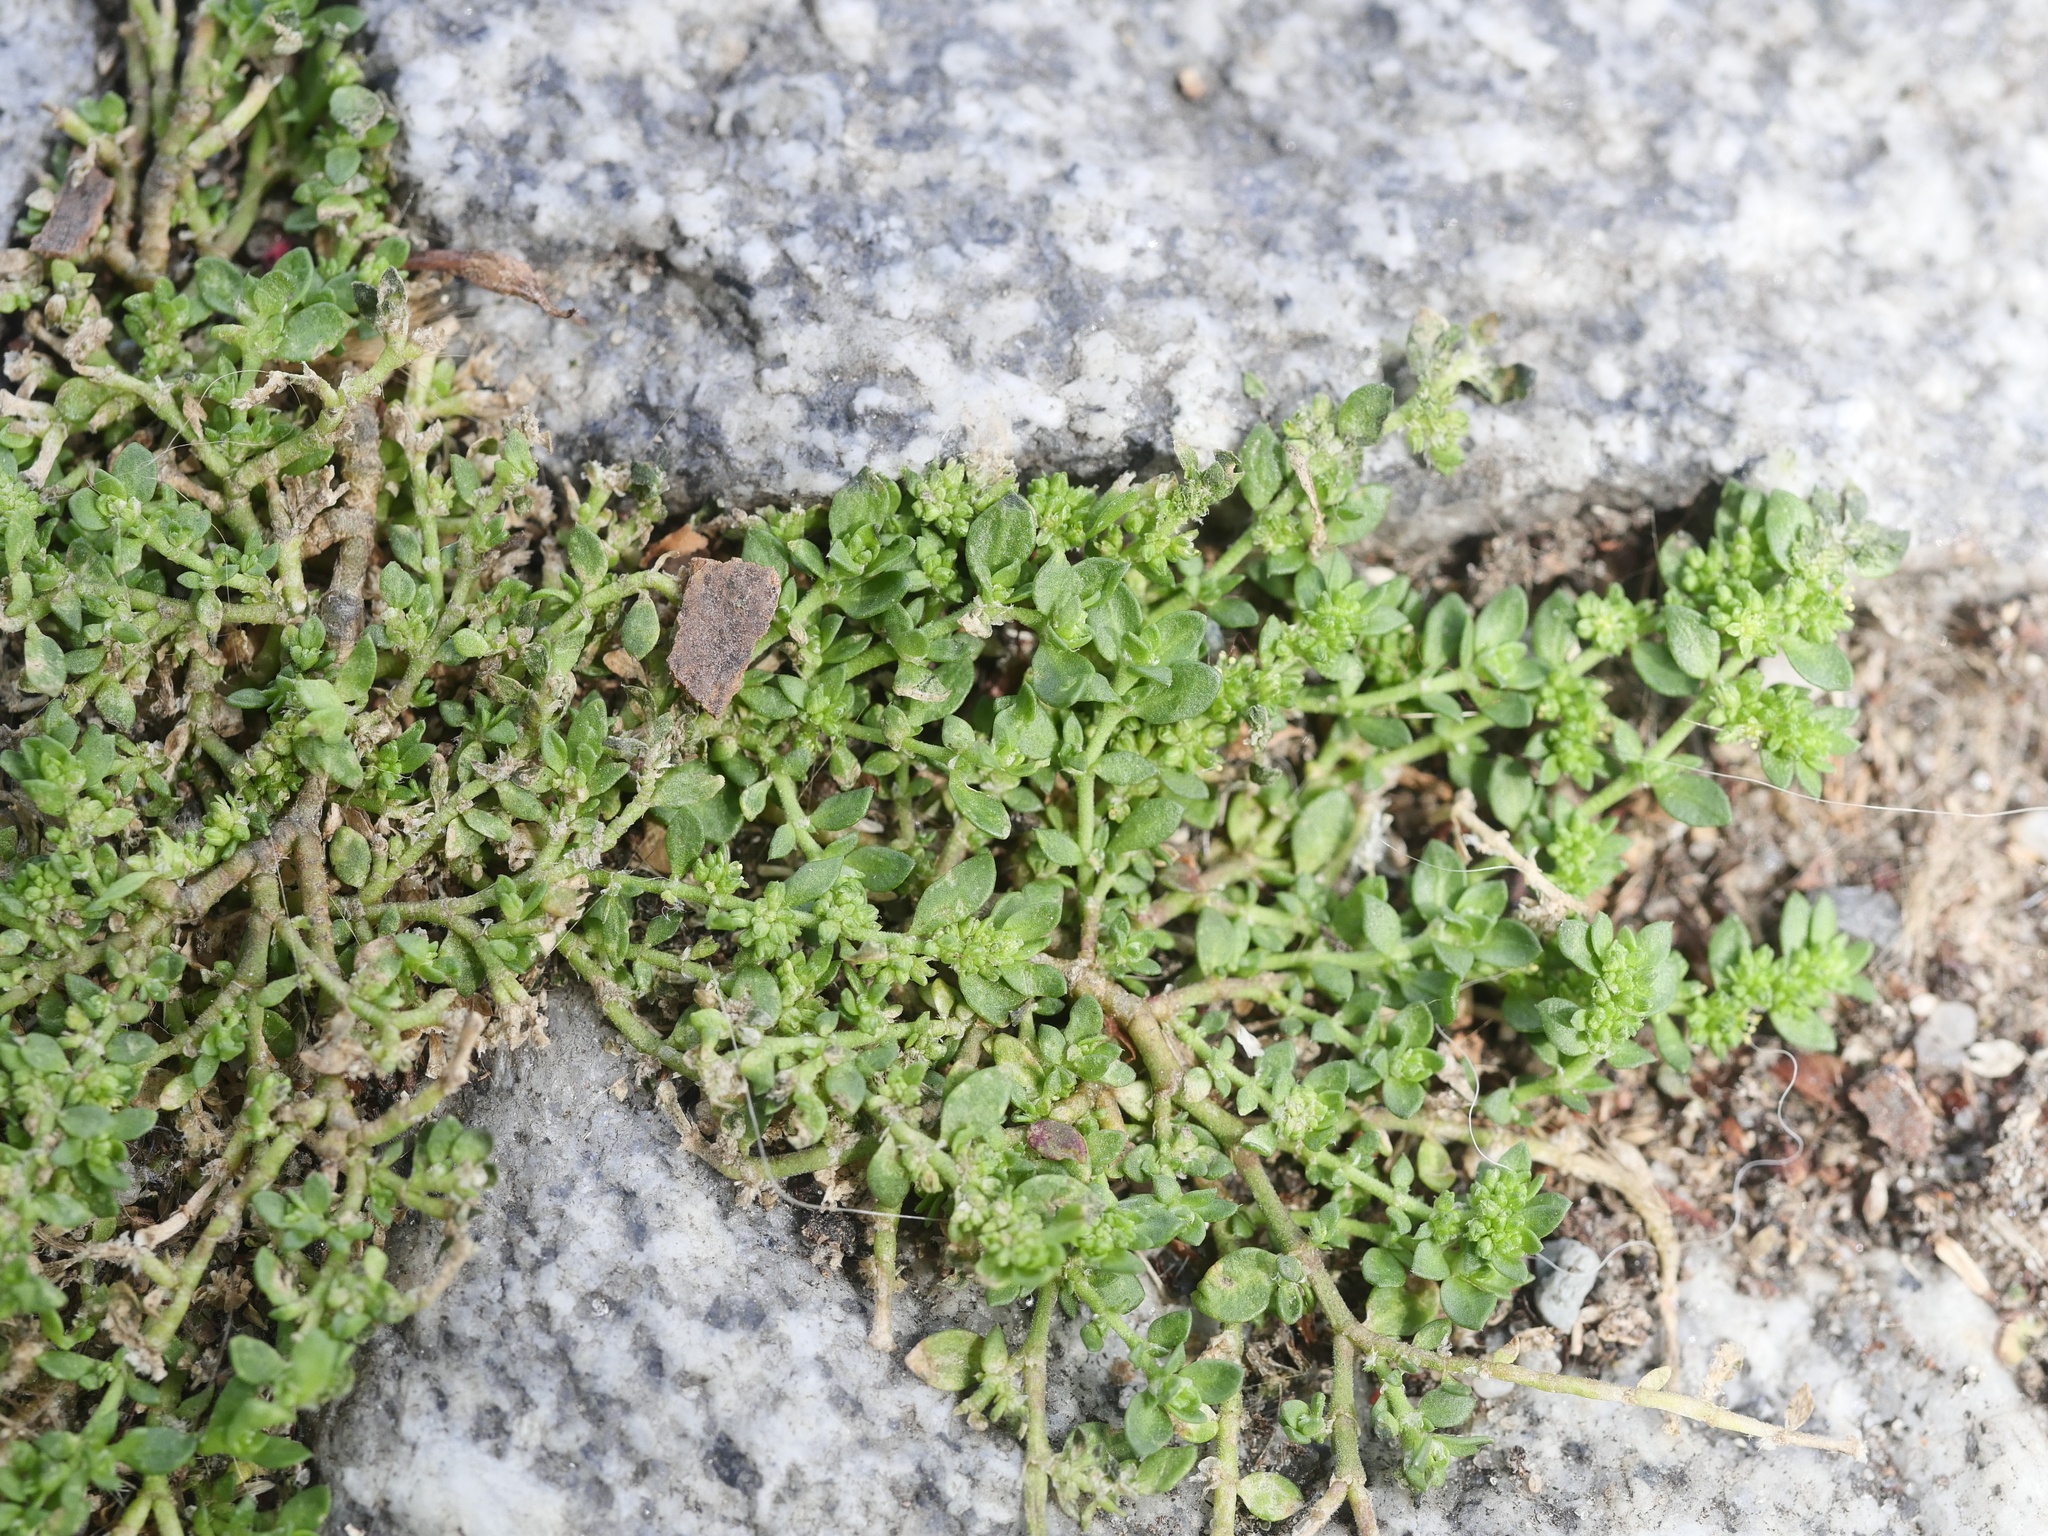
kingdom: Plantae
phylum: Tracheophyta
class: Magnoliopsida
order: Caryophyllales
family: Caryophyllaceae
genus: Herniaria
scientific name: Herniaria glabra
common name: Smooth rupturewort
